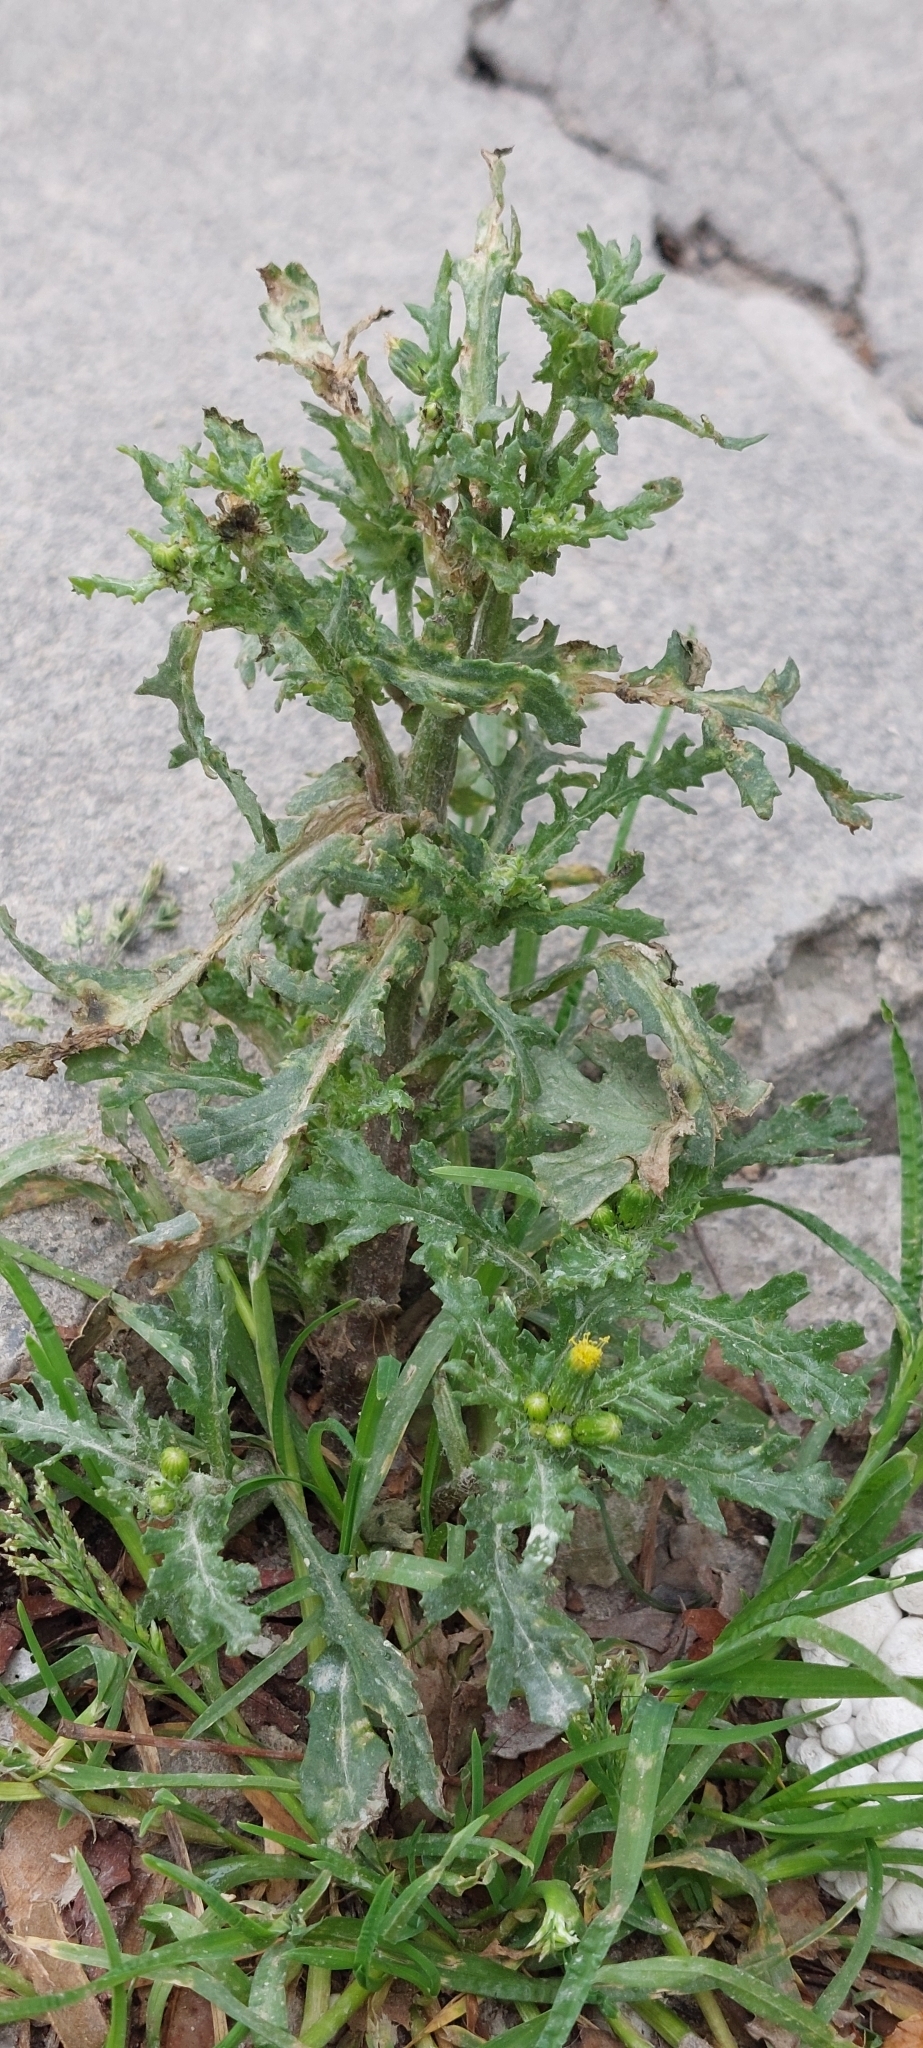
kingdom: Plantae
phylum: Tracheophyta
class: Magnoliopsida
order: Asterales
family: Asteraceae
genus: Senecio
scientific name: Senecio vulgaris
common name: Old-man-in-the-spring
